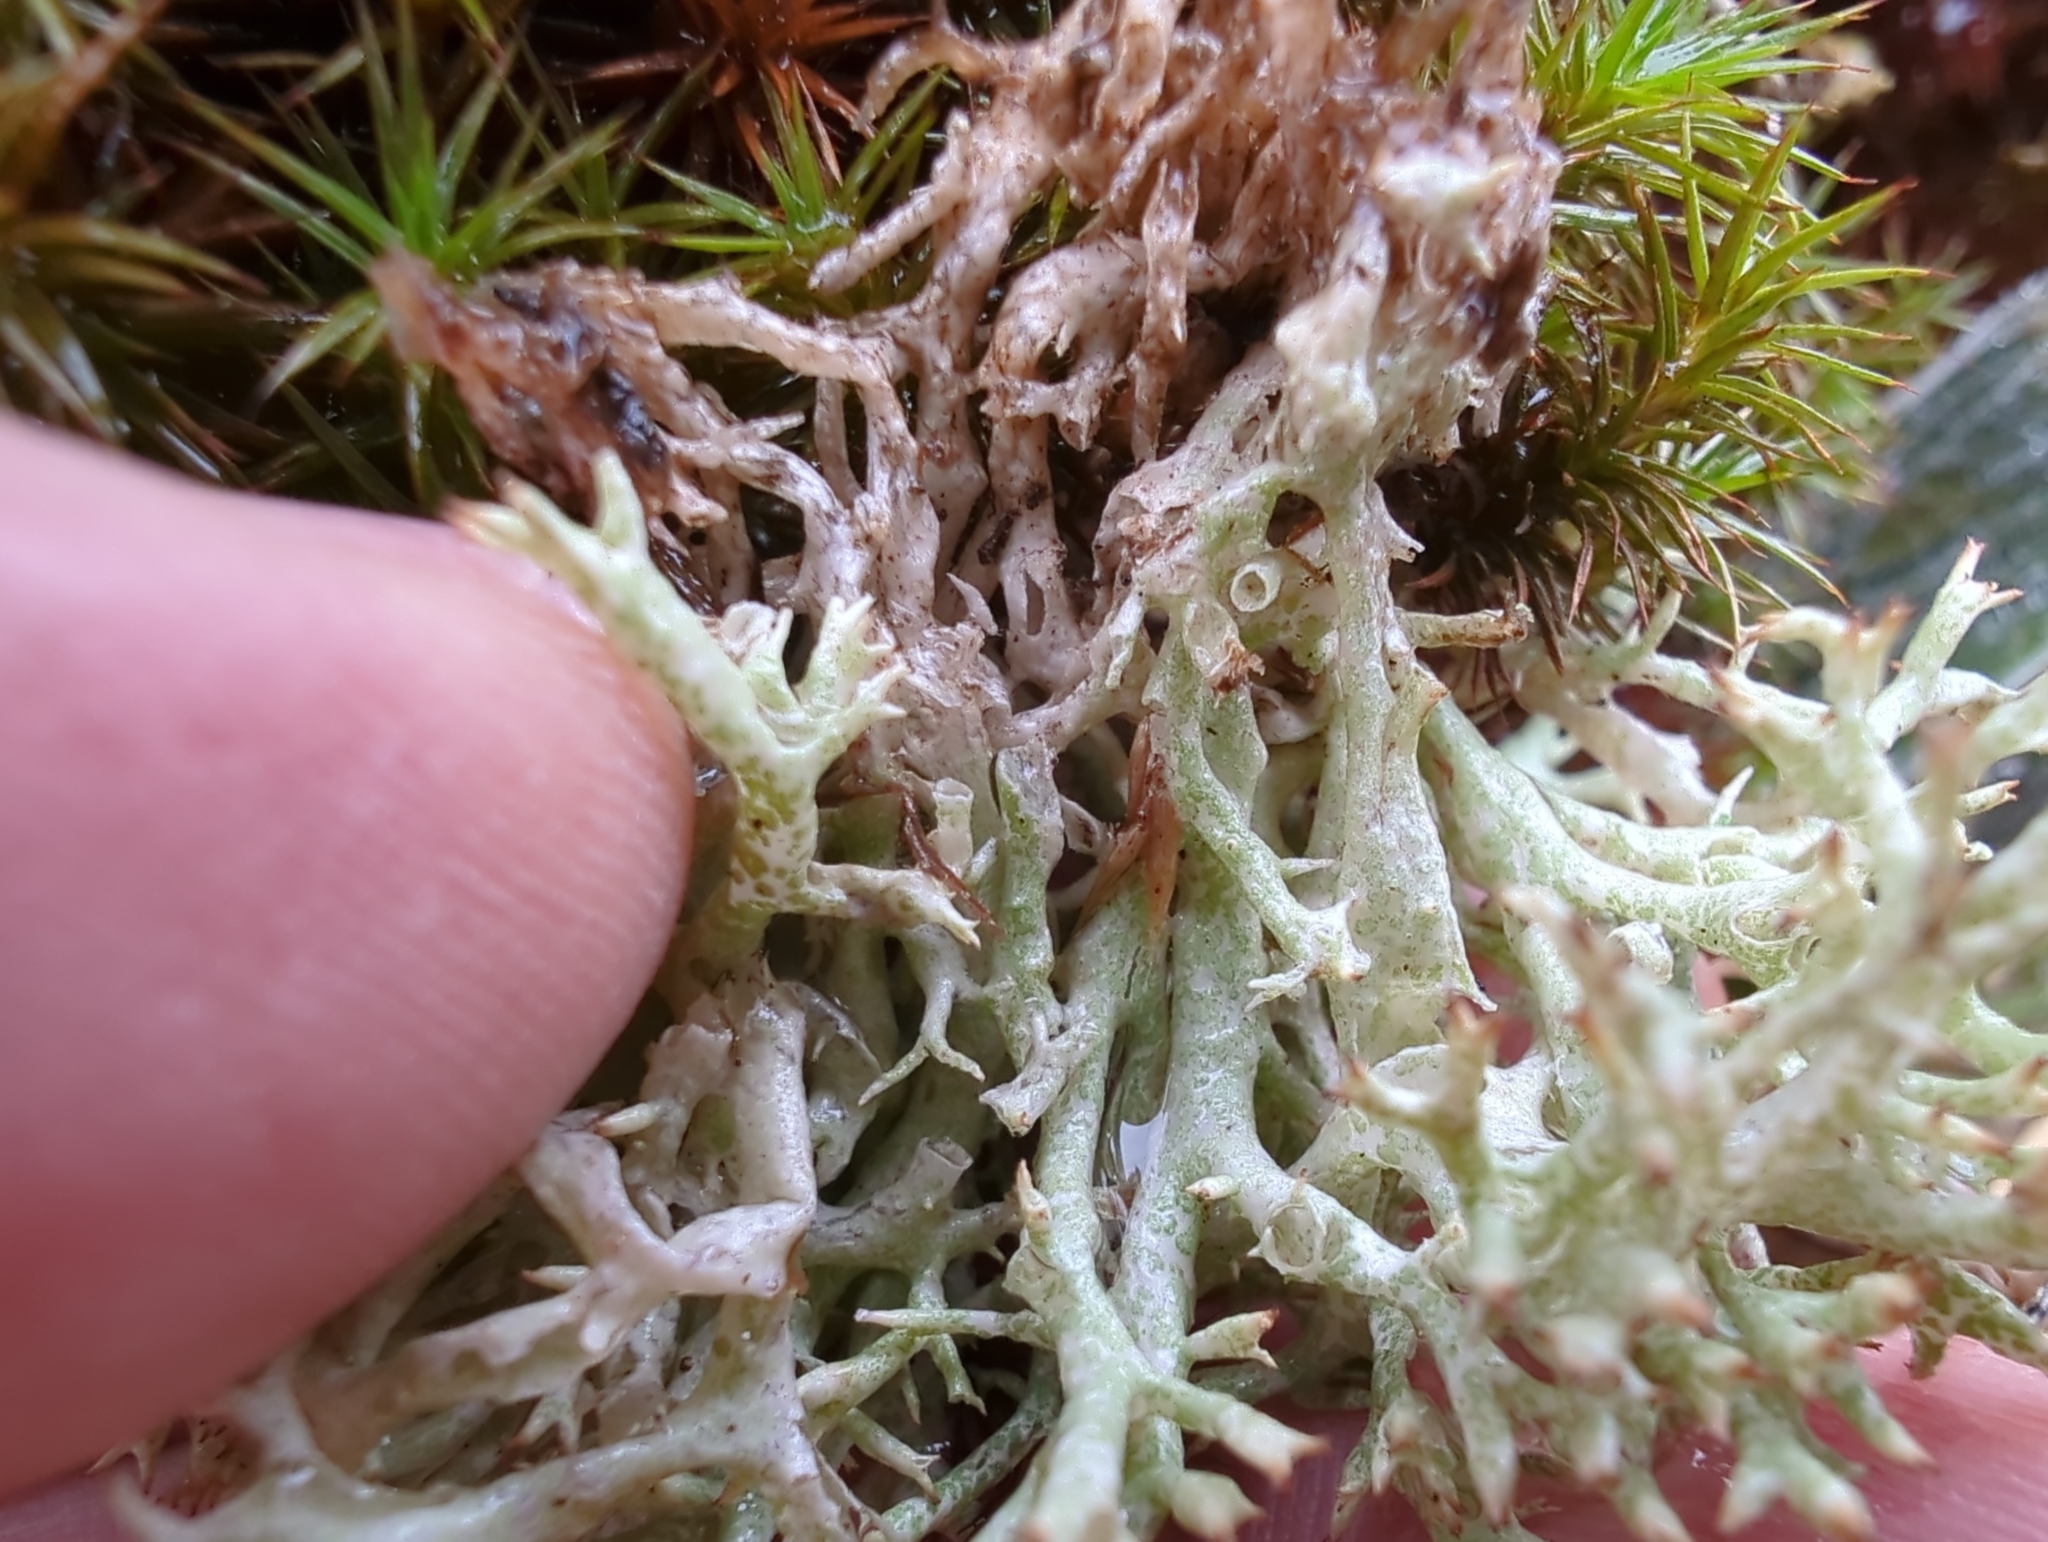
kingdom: Fungi
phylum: Ascomycota
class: Lecanoromycetes
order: Lecanorales
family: Cladoniaceae
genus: Cladonia
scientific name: Cladonia uncialis
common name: Thorn lichen
